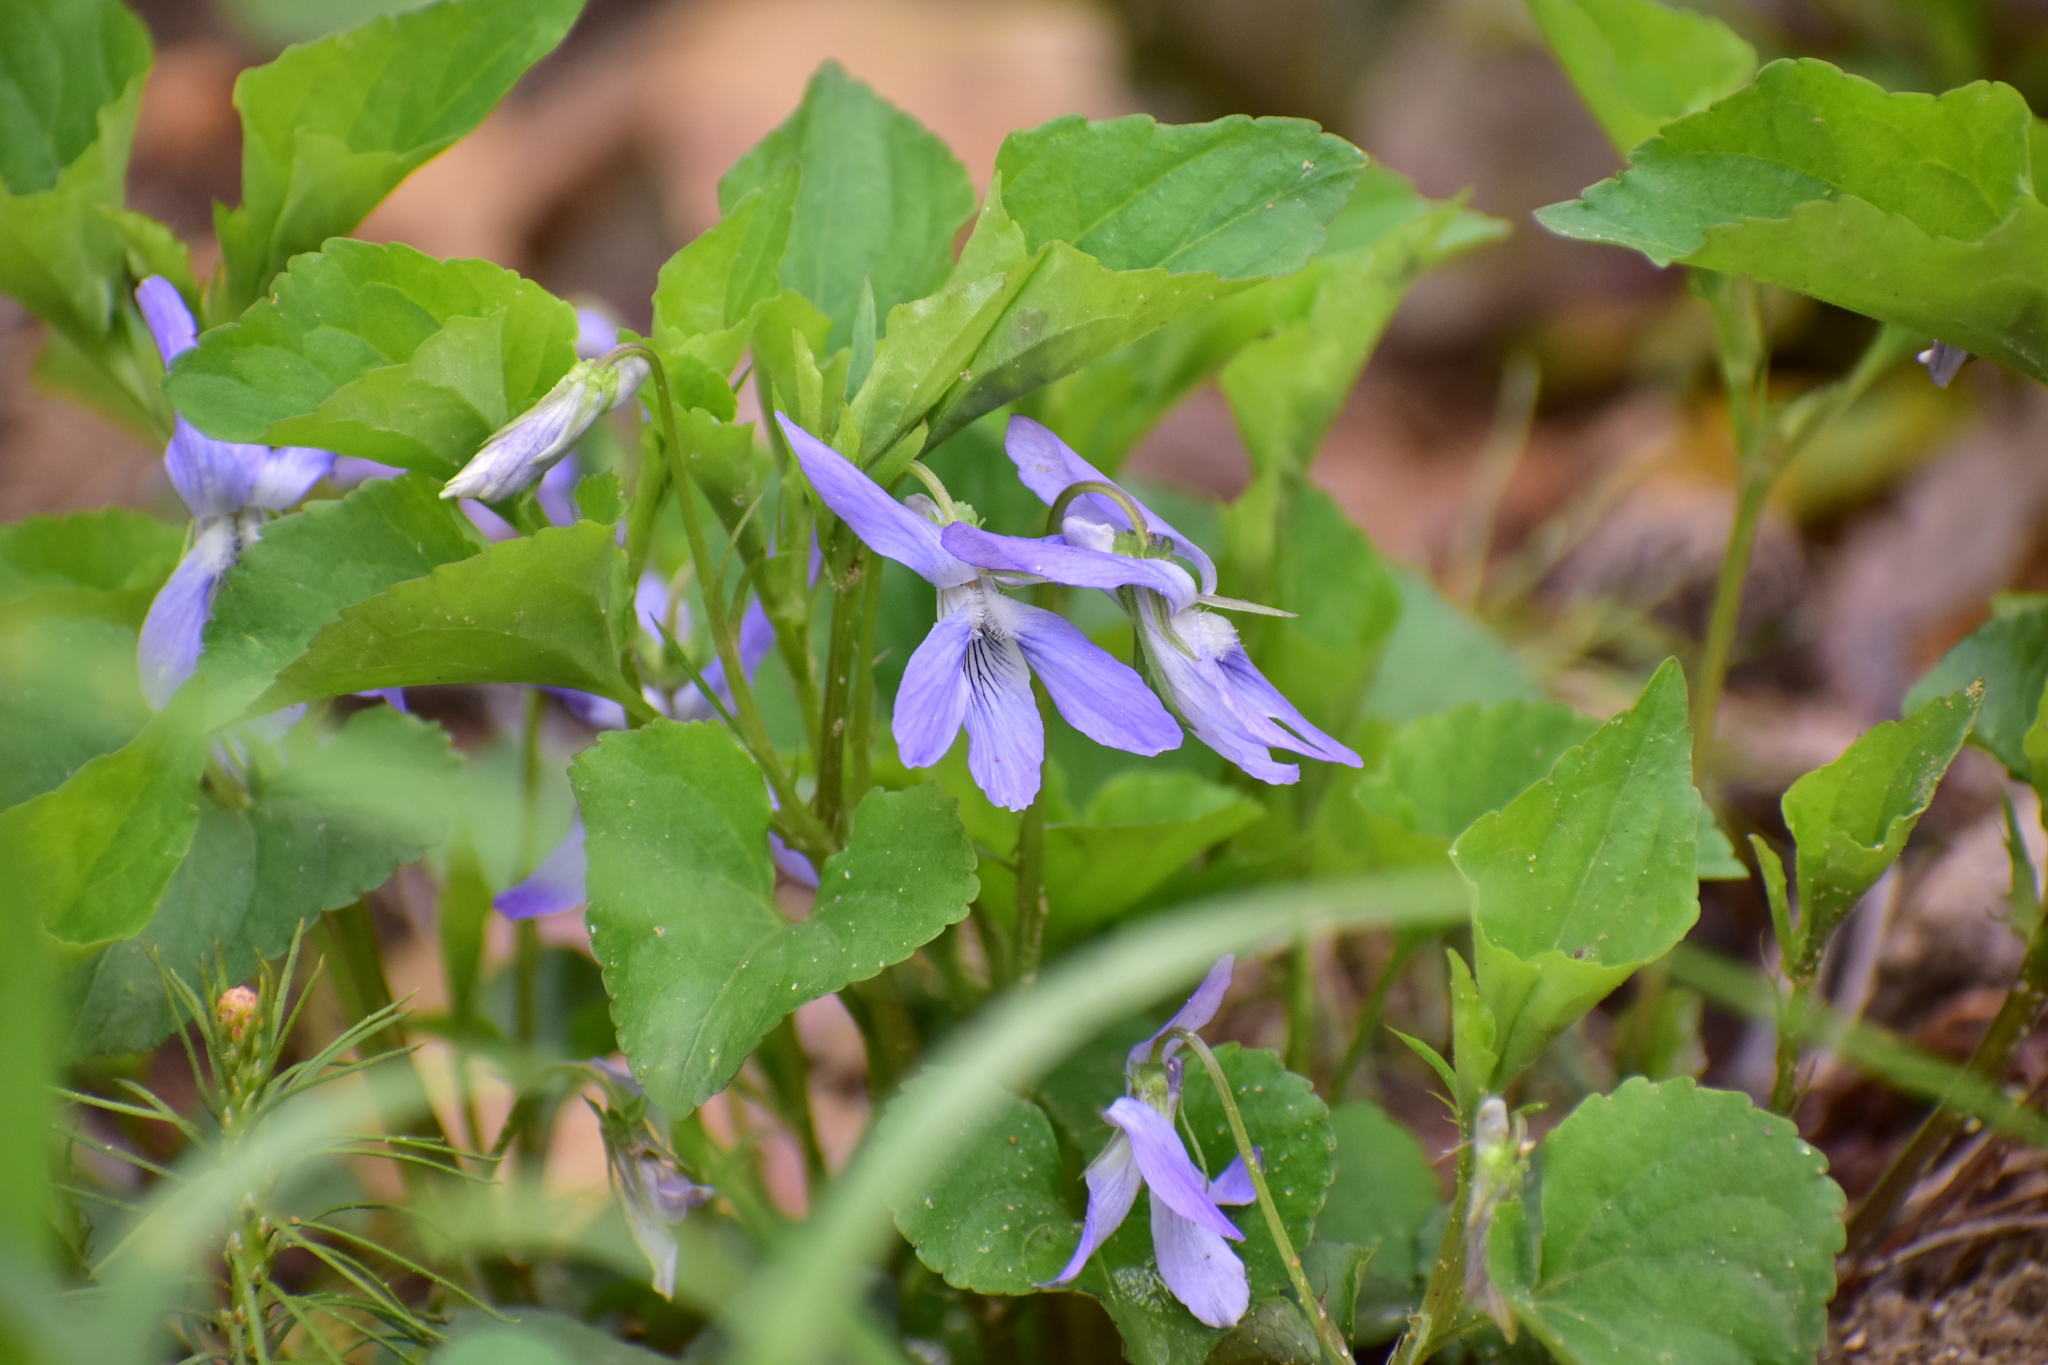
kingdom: Plantae
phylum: Tracheophyta
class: Magnoliopsida
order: Malpighiales
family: Violaceae
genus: Viola
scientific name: Viola riviniana
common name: Common dog-violet
